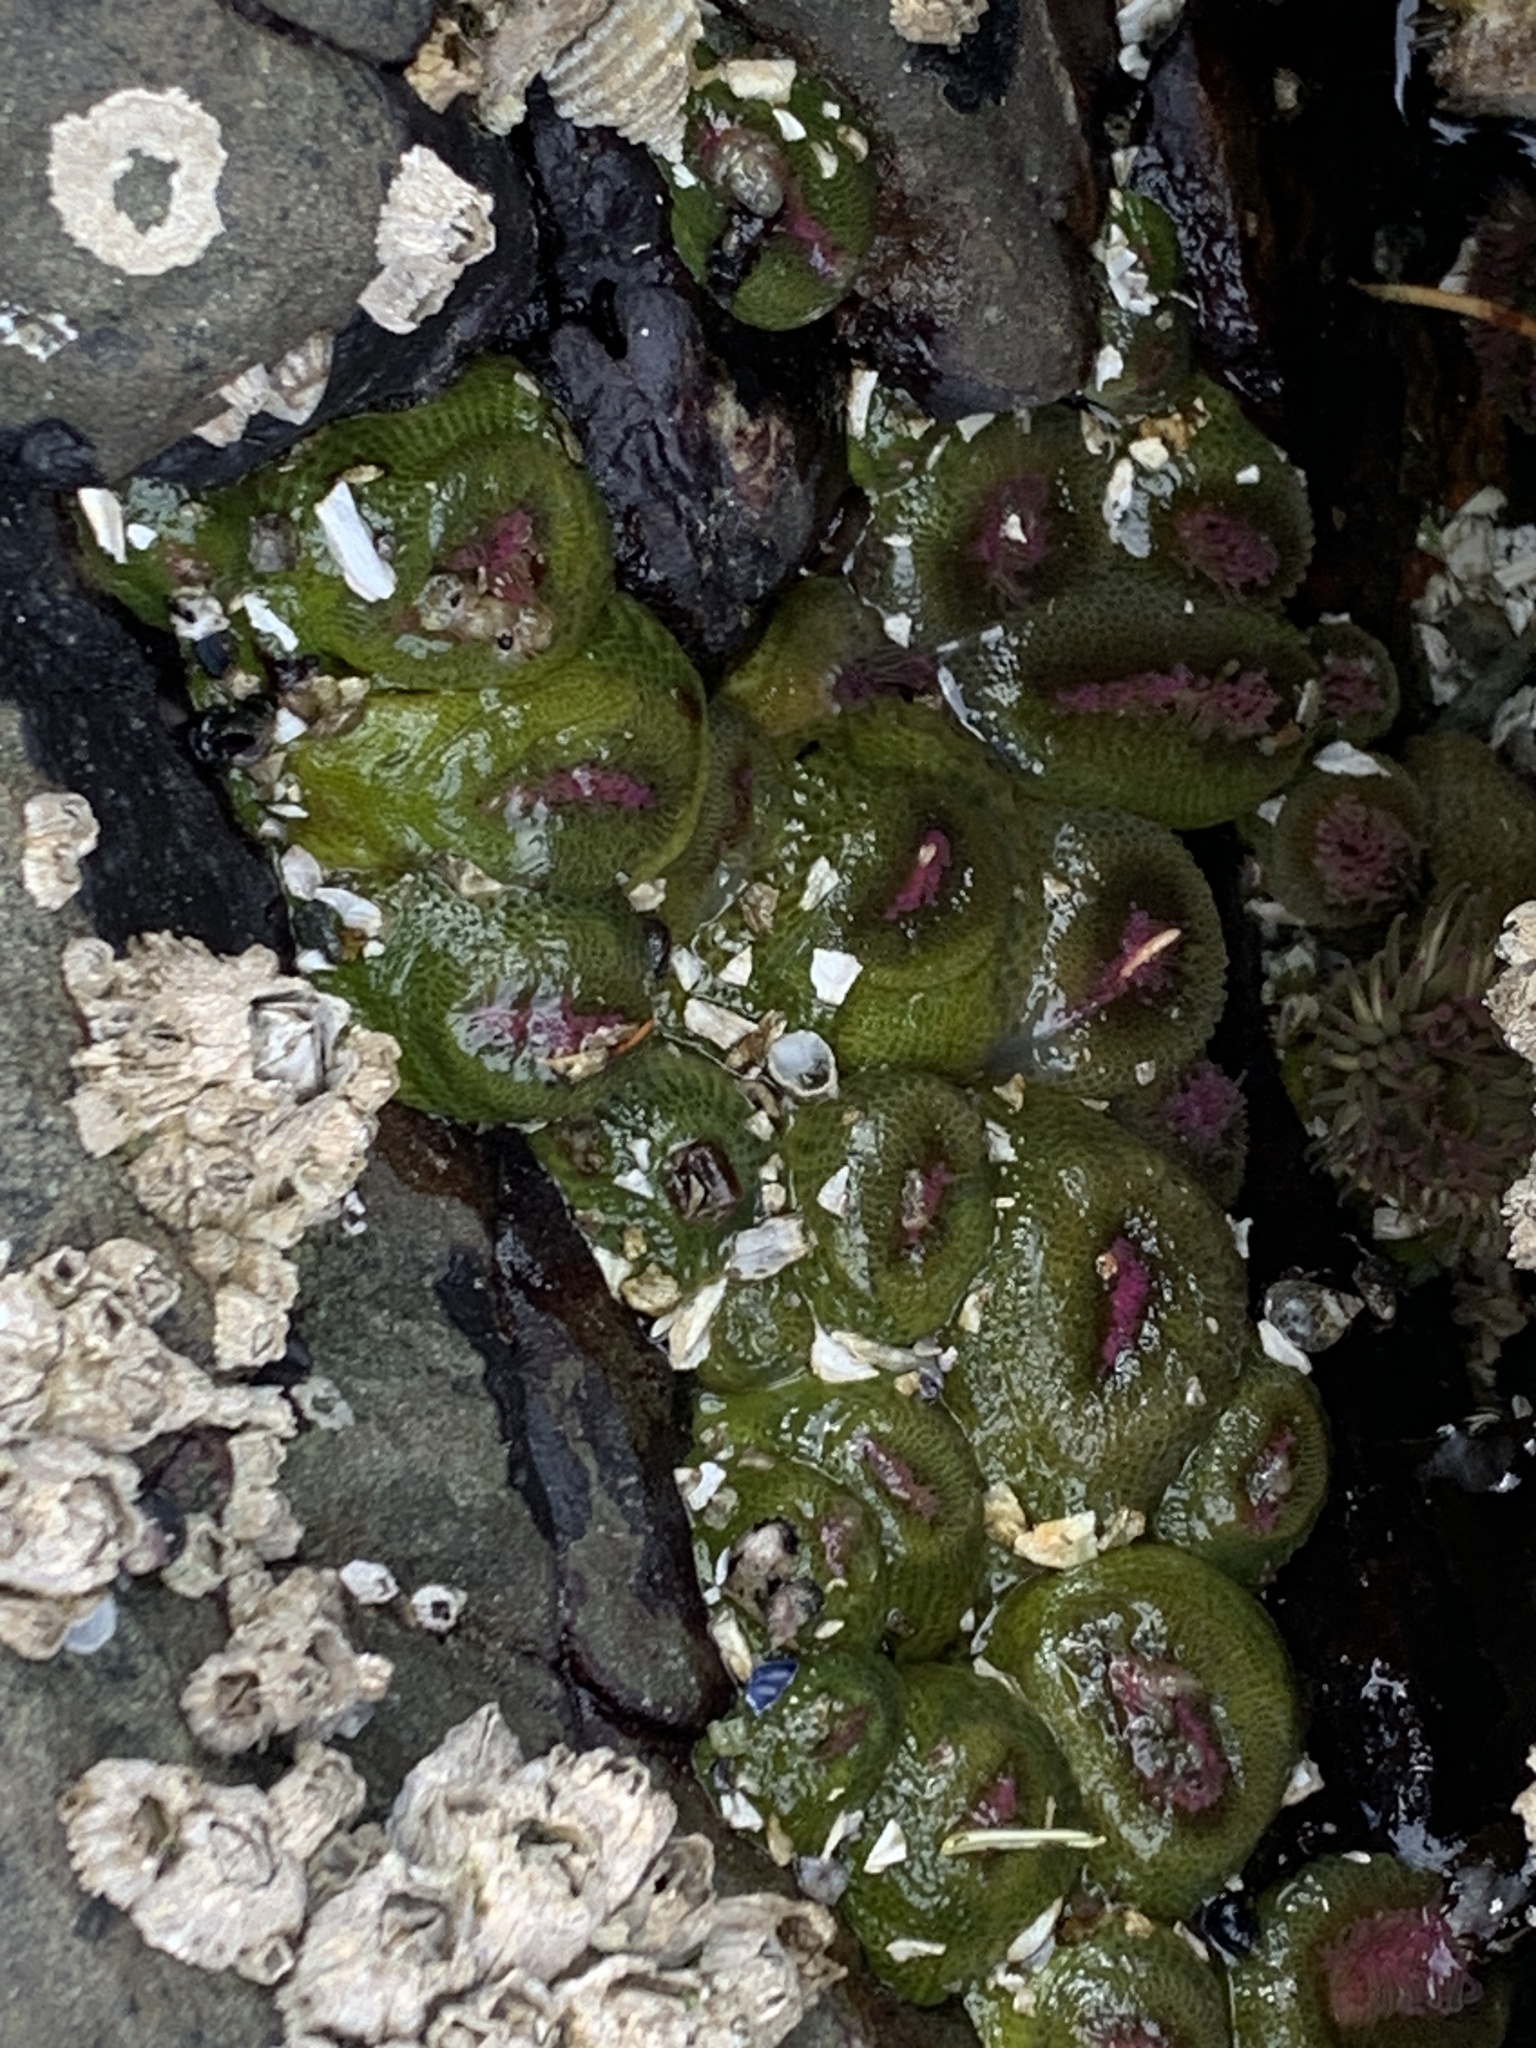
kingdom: Animalia
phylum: Cnidaria
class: Anthozoa
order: Actiniaria
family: Actiniidae
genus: Anthopleura
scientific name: Anthopleura elegantissima
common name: Clonal anemone
